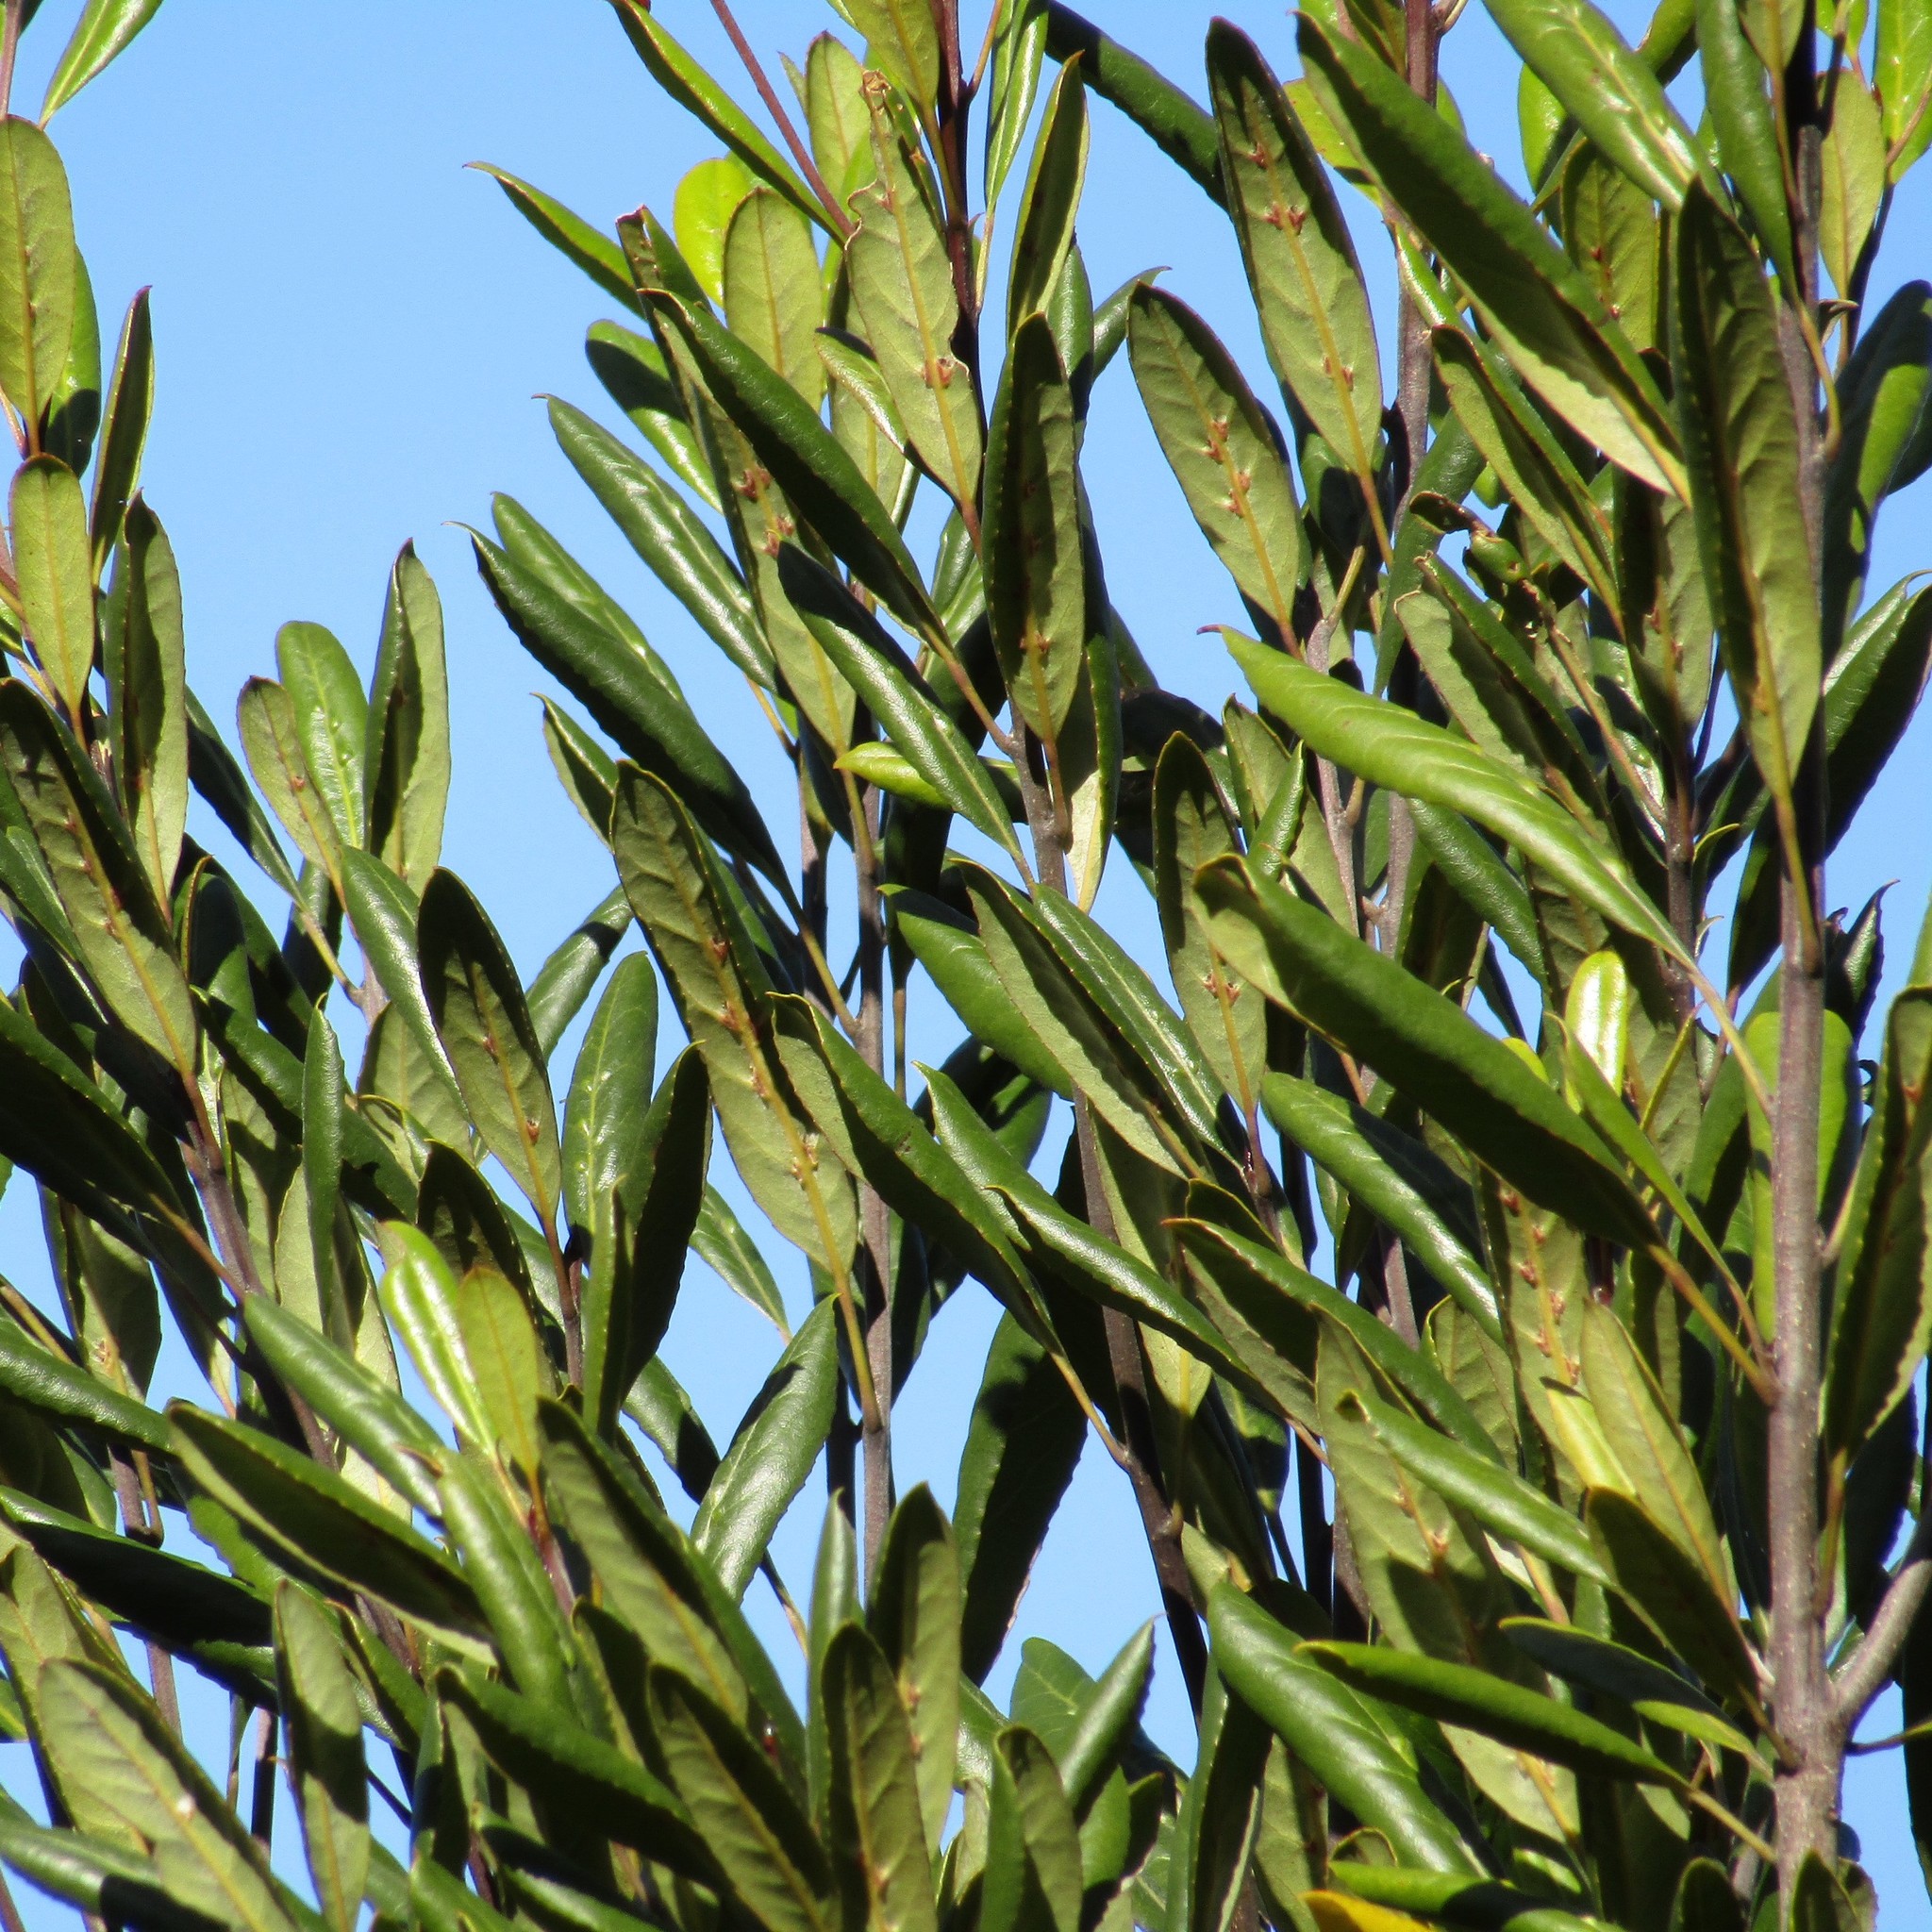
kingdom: Plantae
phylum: Tracheophyta
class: Magnoliopsida
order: Oxalidales
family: Elaeocarpaceae
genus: Elaeocarpus
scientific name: Elaeocarpus dentatus
